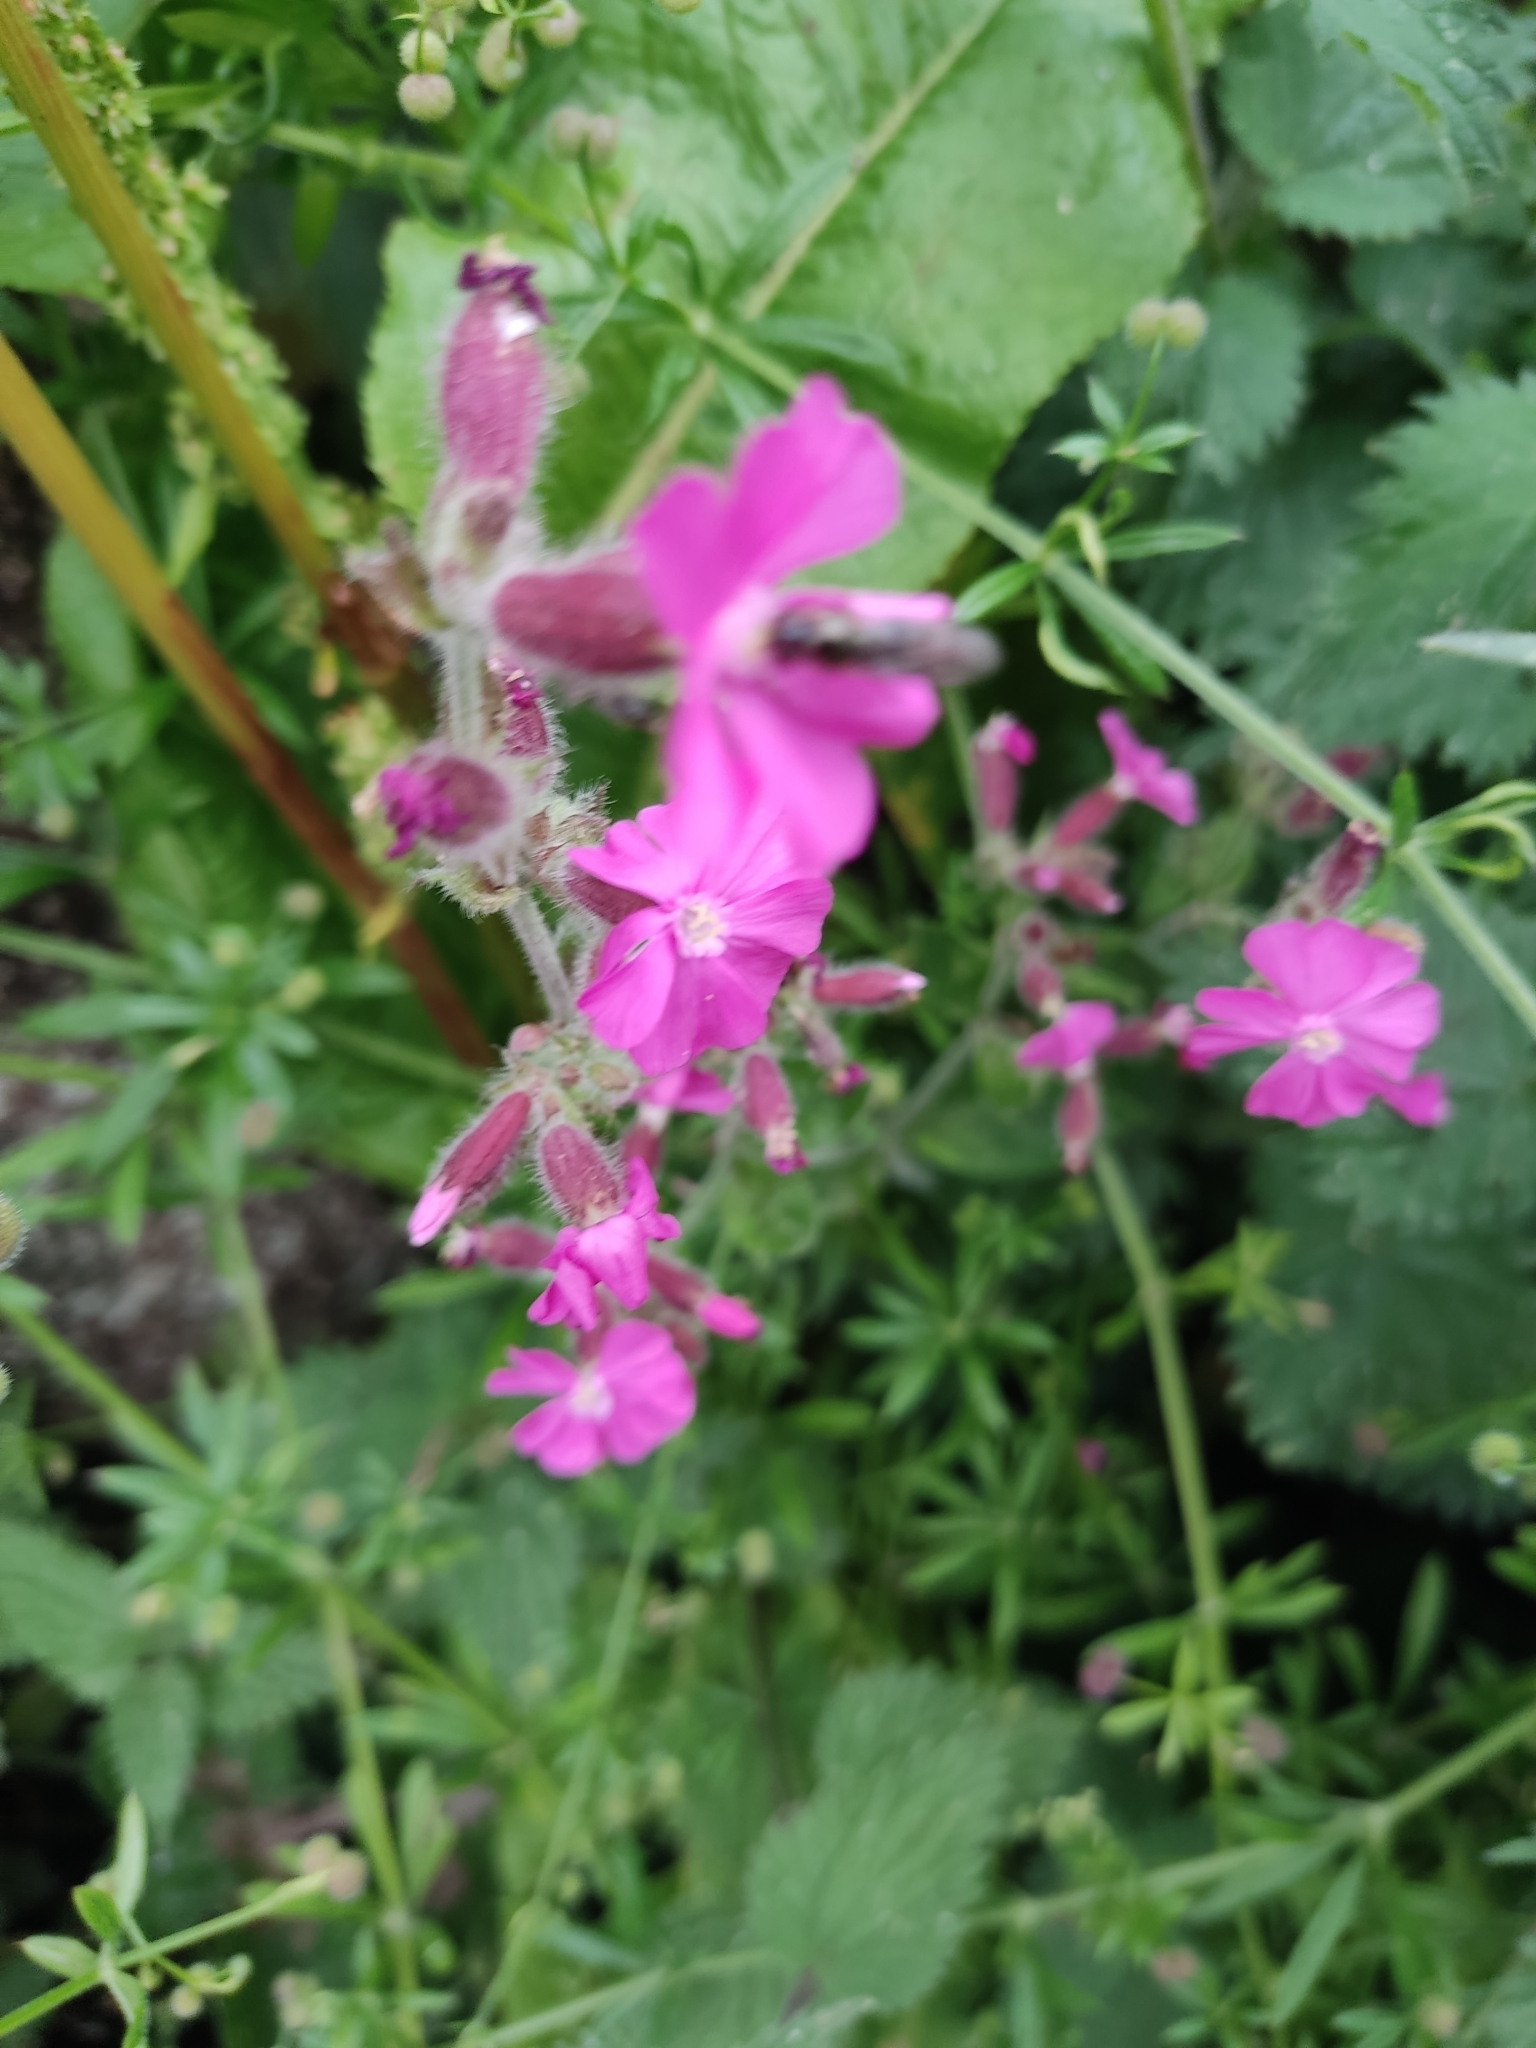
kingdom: Plantae
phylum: Tracheophyta
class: Magnoliopsida
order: Caryophyllales
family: Caryophyllaceae
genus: Silene
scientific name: Silene dioica
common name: Red campion
